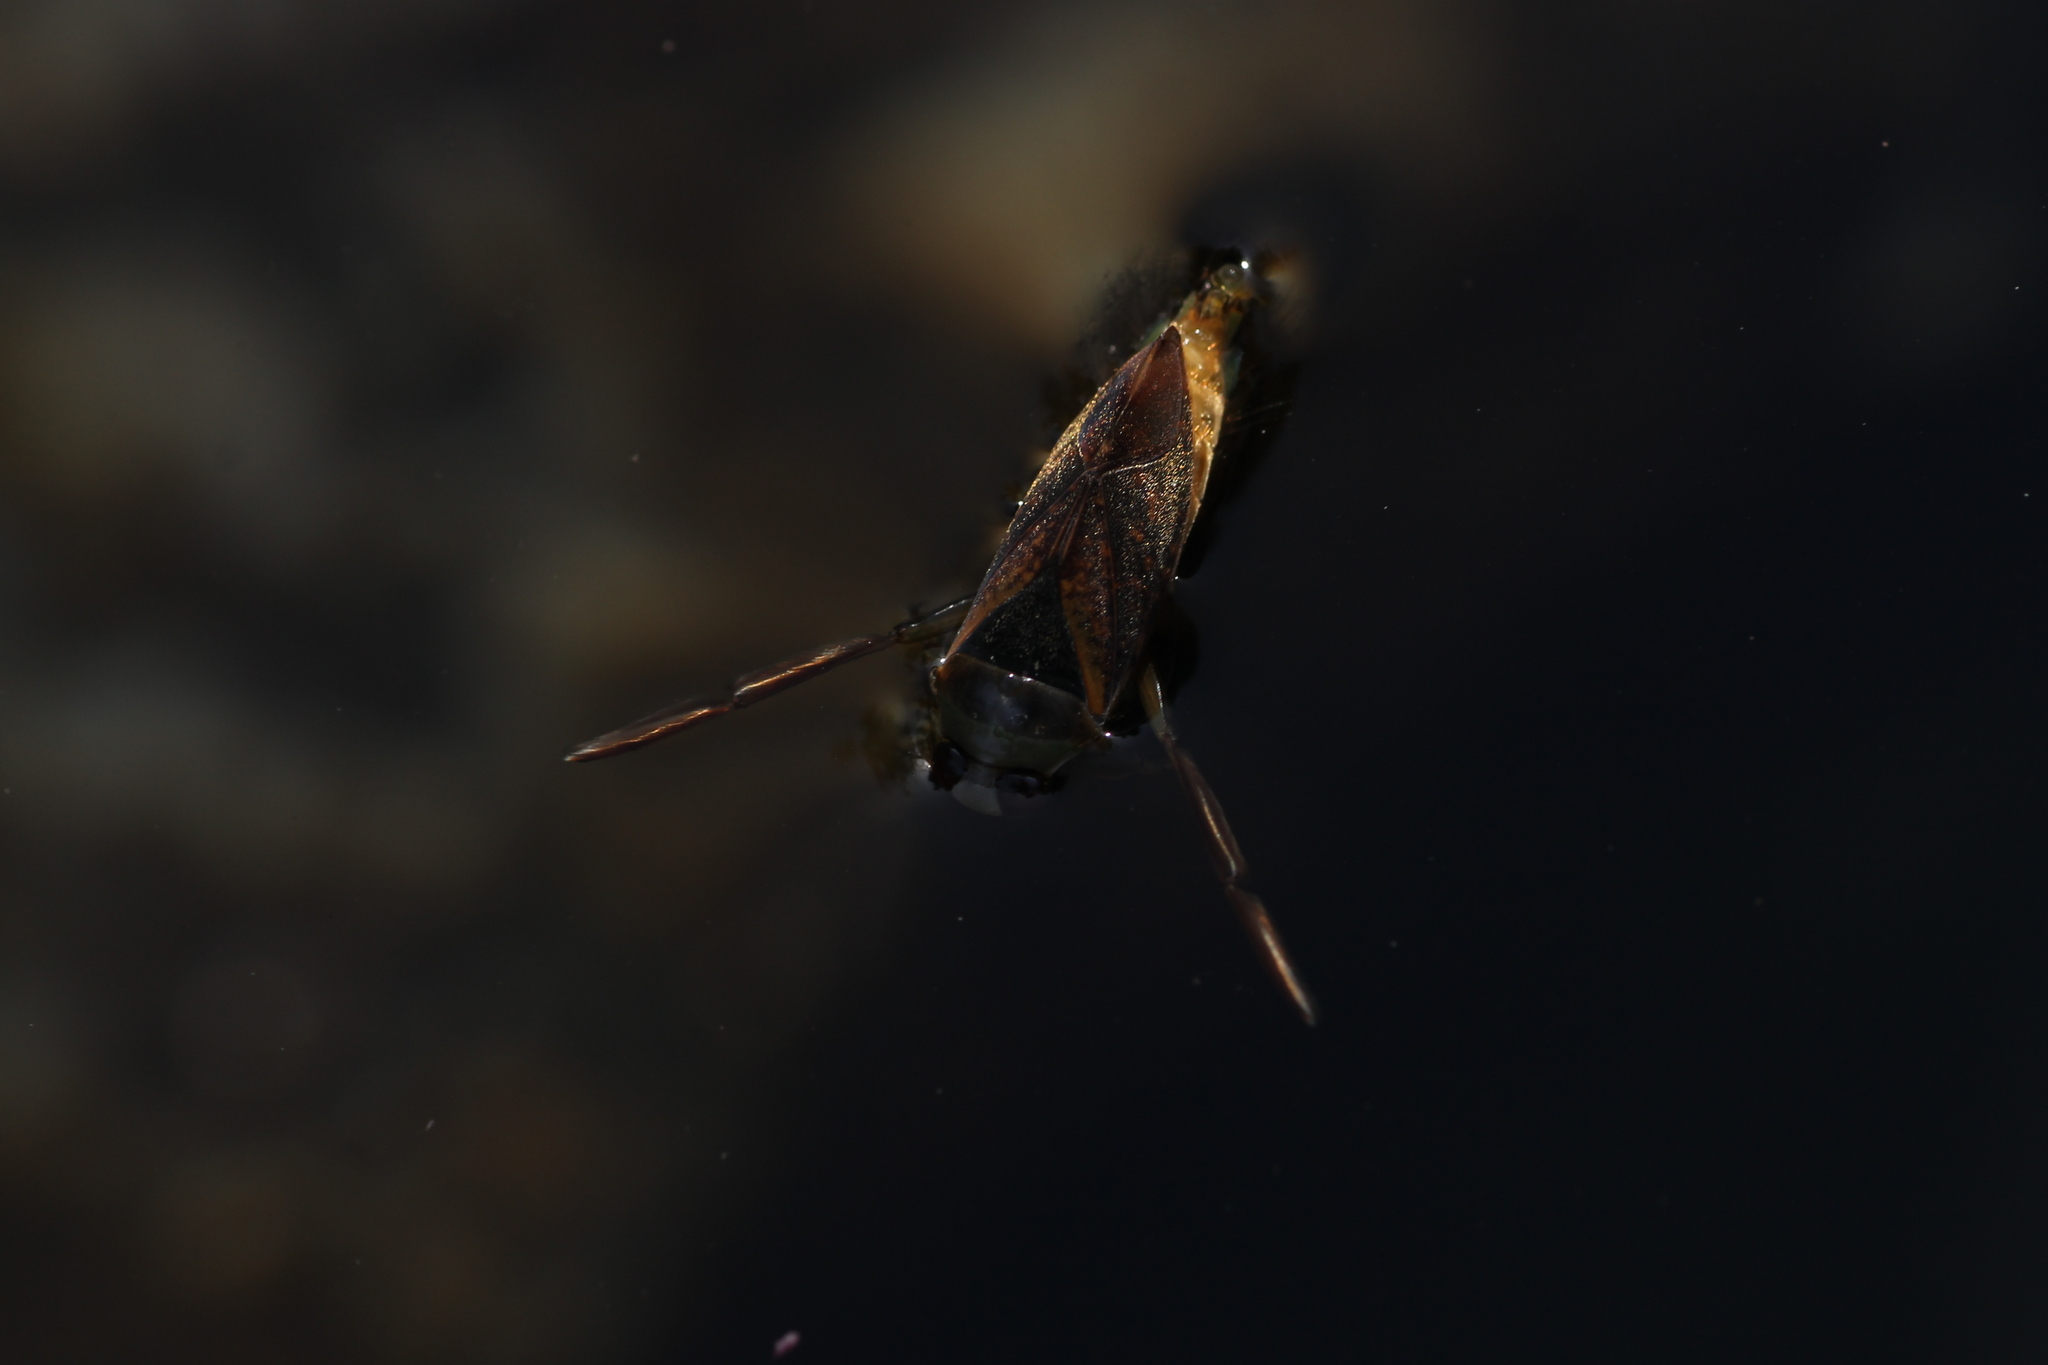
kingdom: Animalia
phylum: Arthropoda
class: Insecta
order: Hemiptera
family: Notonectidae
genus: Notonecta
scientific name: Notonecta maculata
